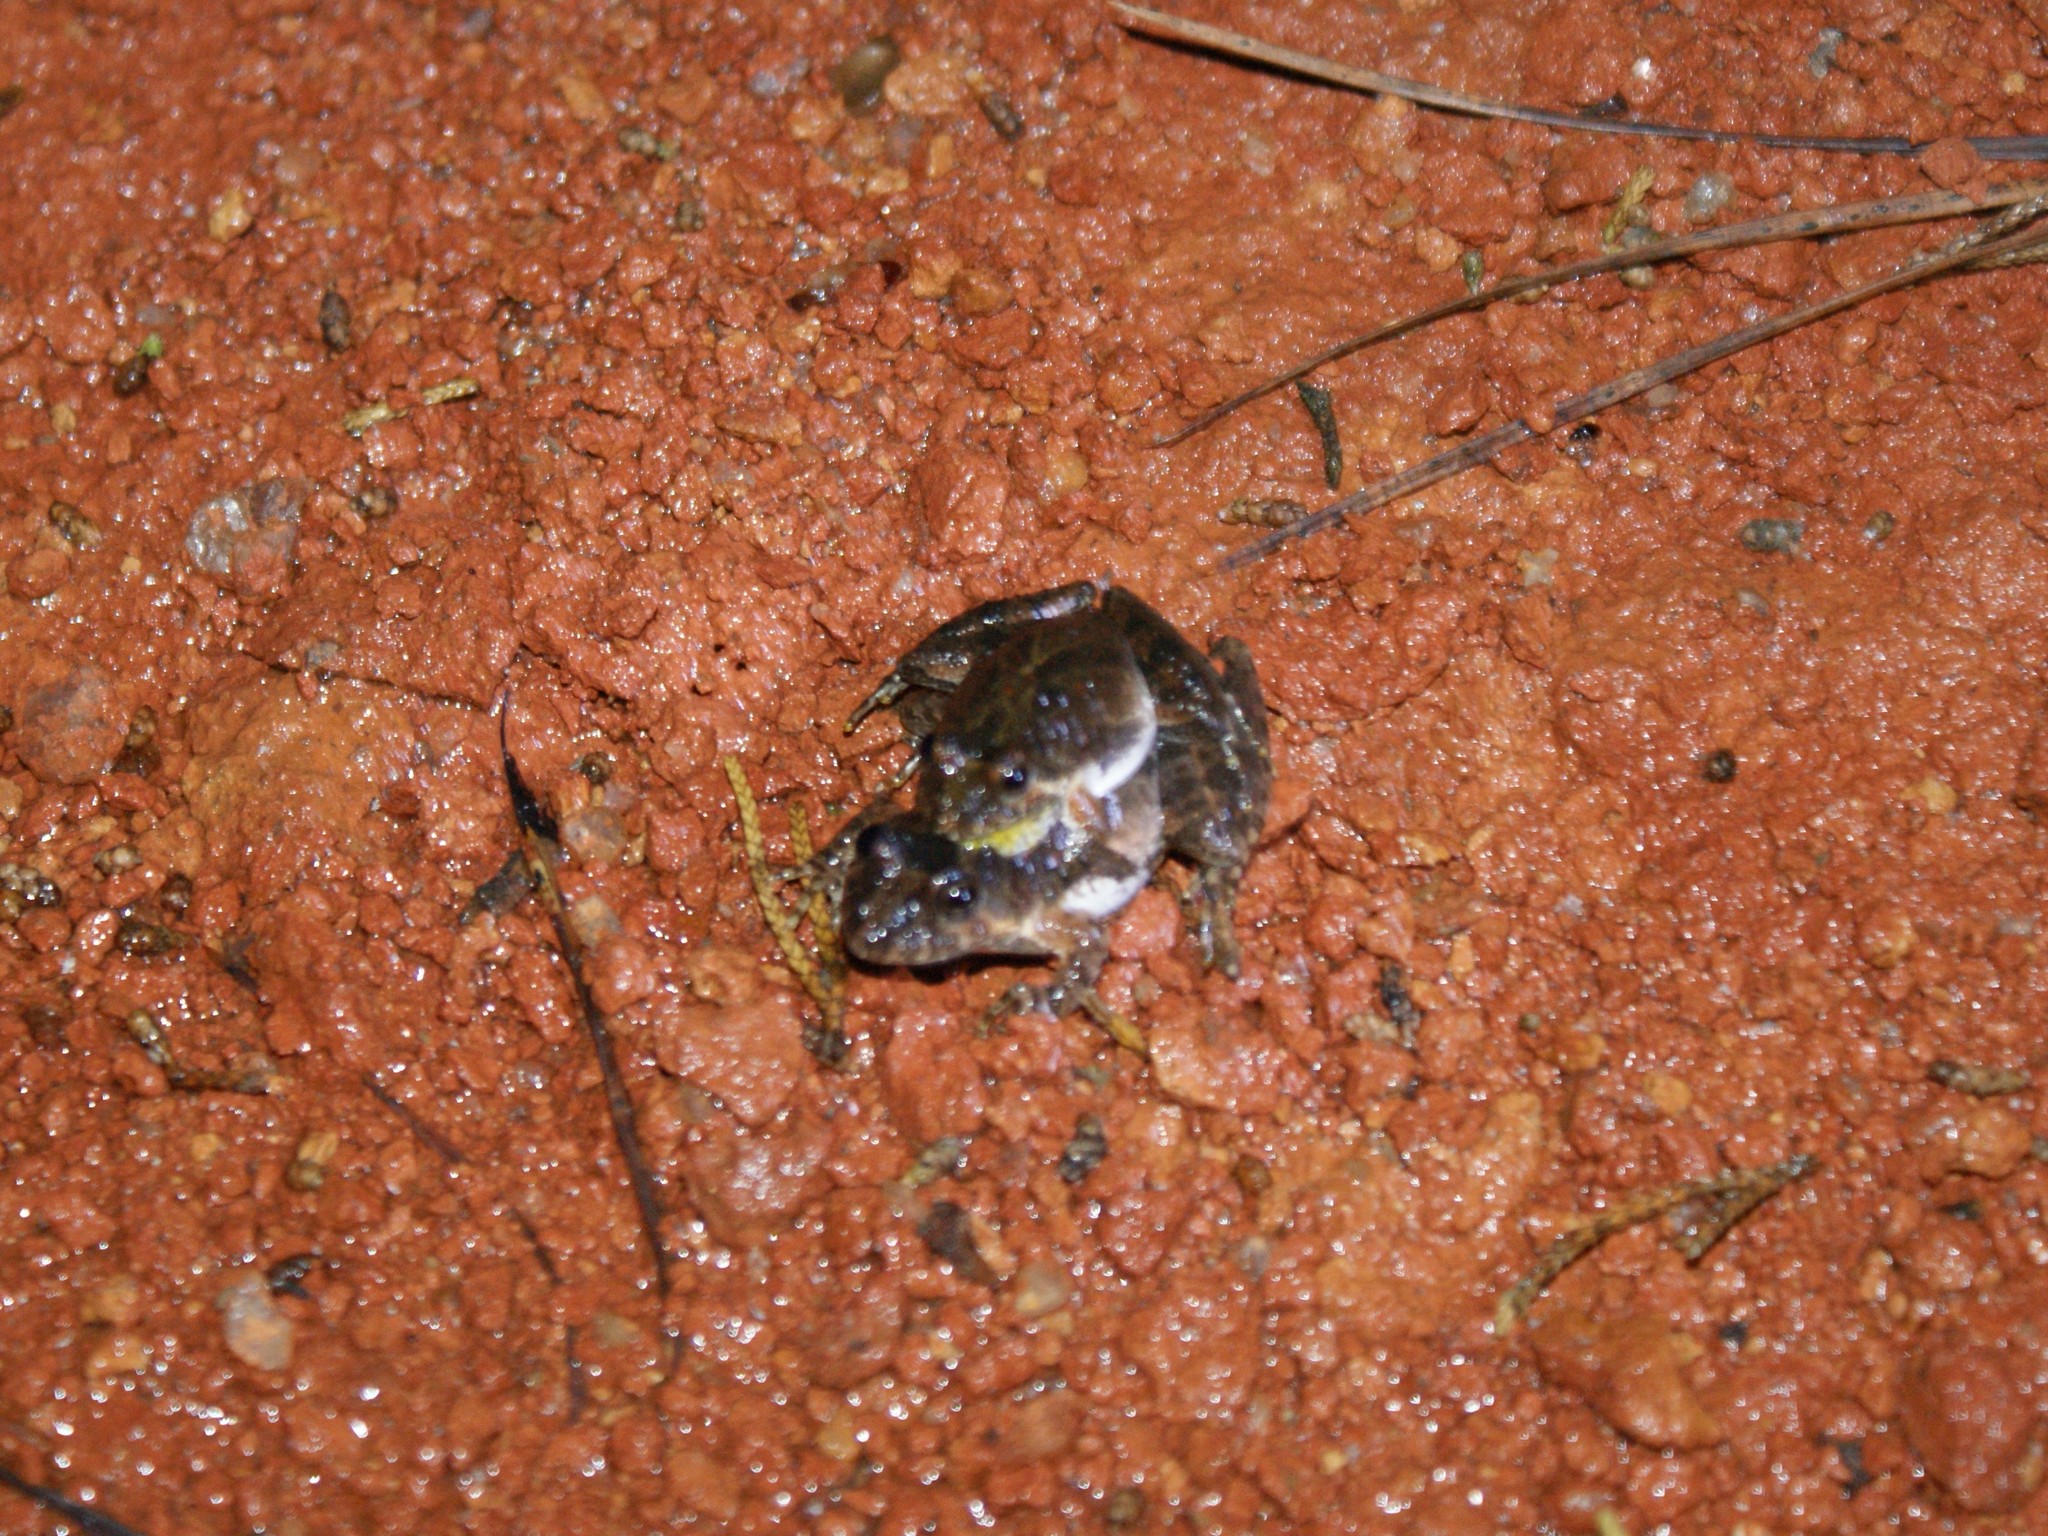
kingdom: Animalia
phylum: Chordata
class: Amphibia
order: Anura
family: Hylidae
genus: Acris
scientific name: Acris crepitans
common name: Northern cricket frog
